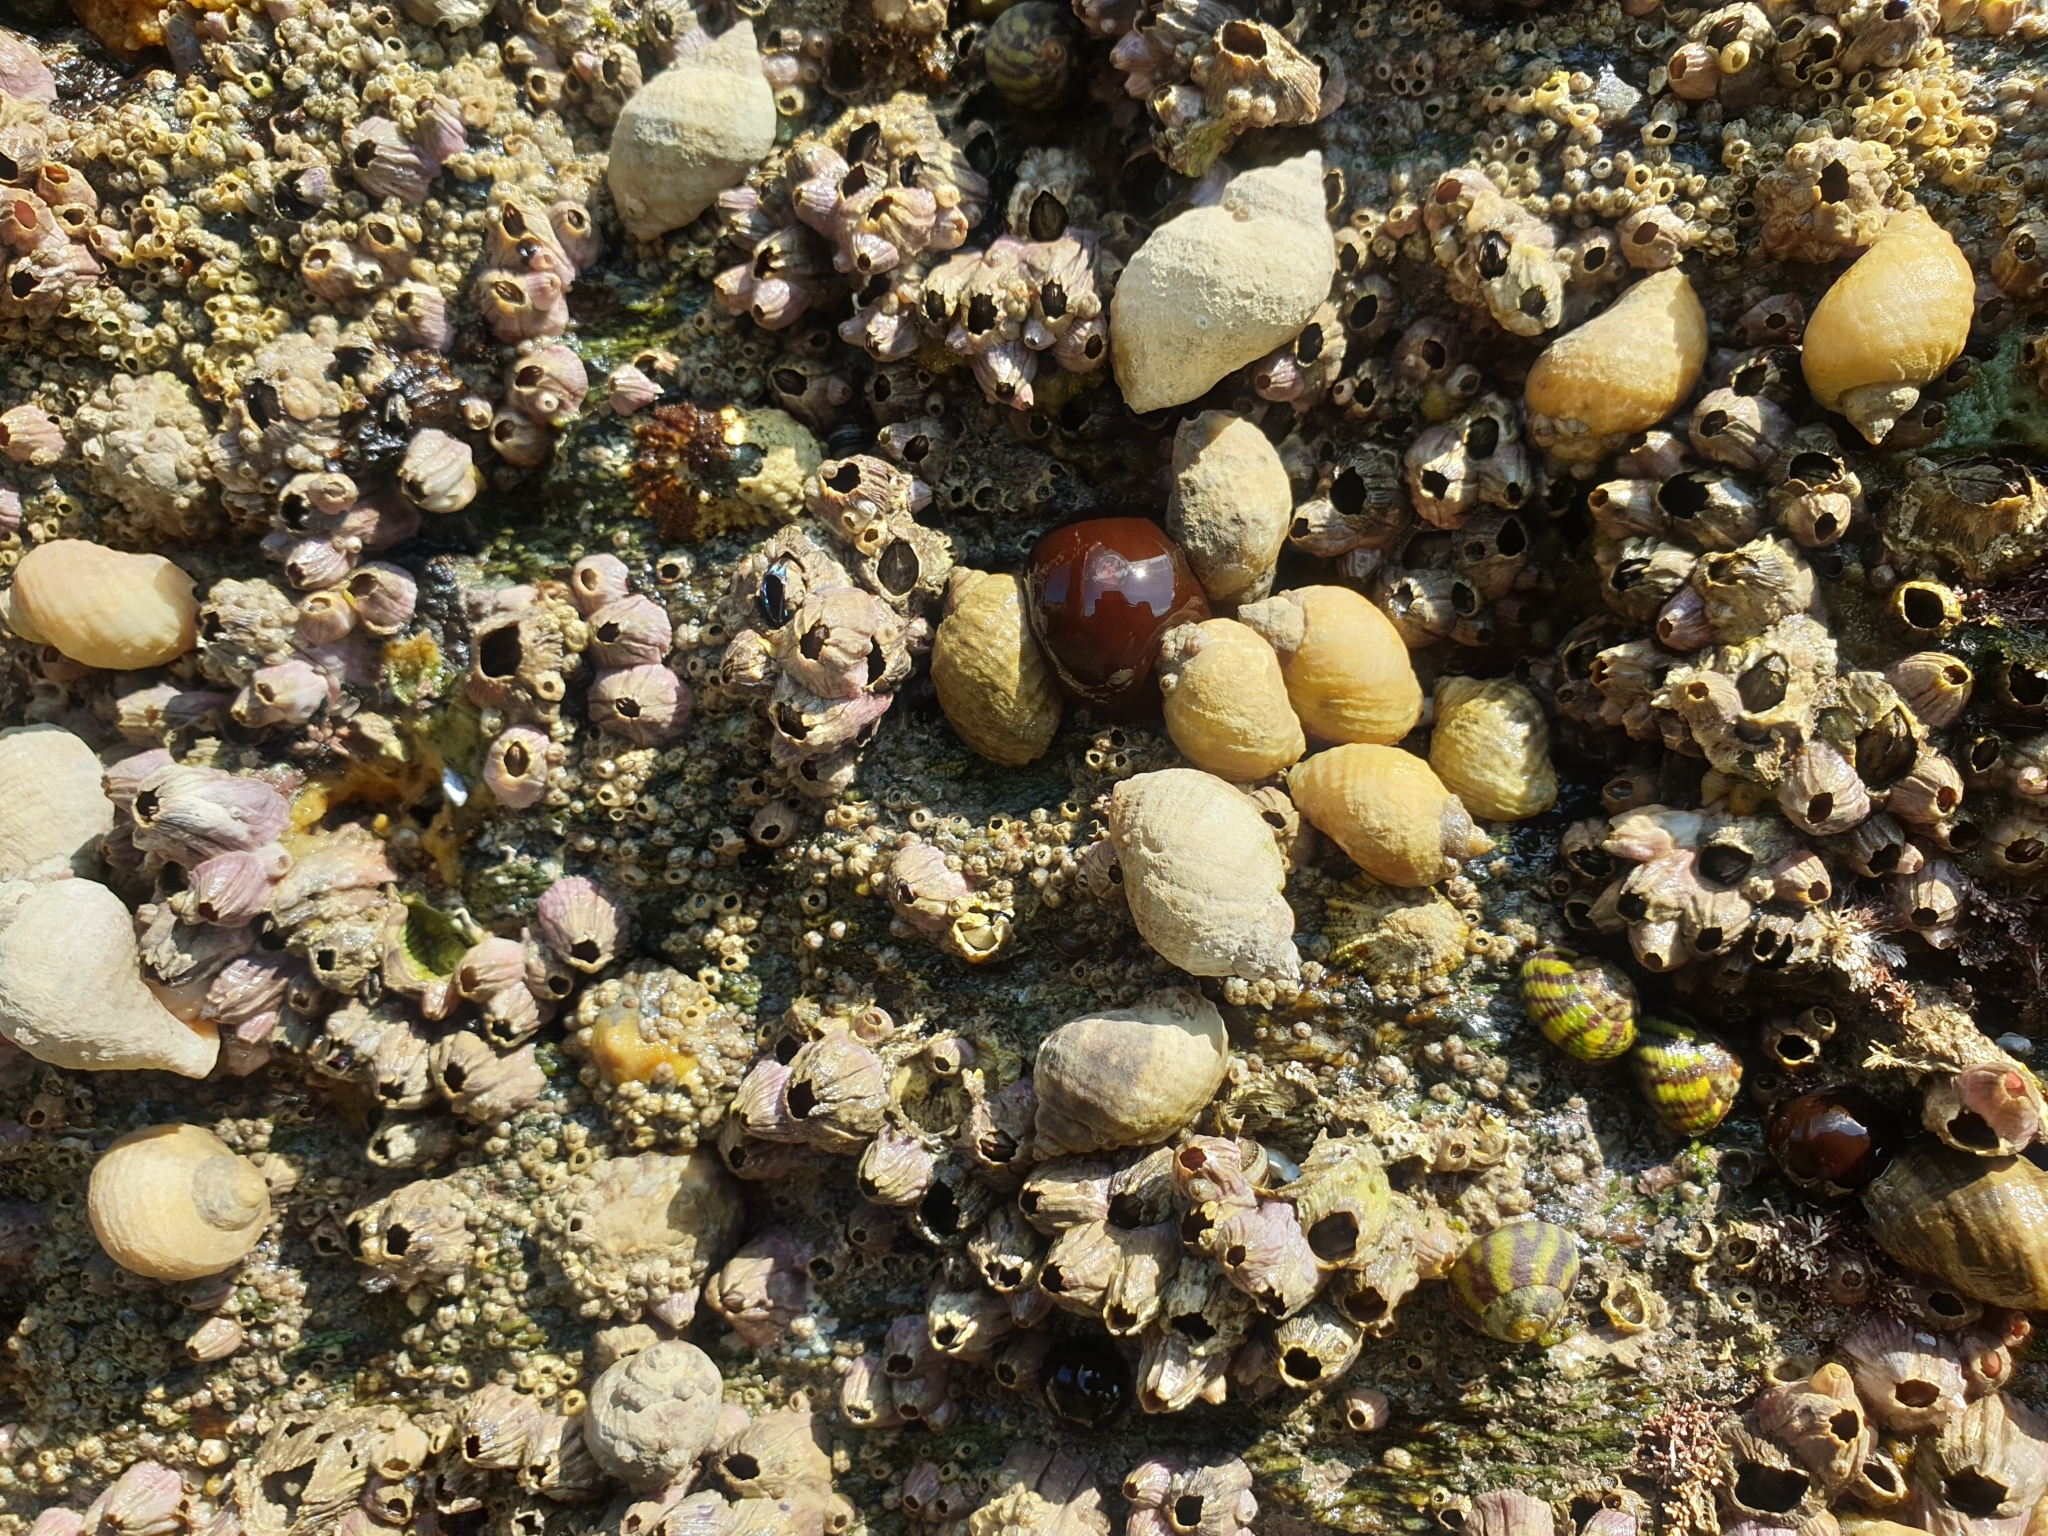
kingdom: Animalia
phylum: Mollusca
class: Gastropoda
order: Neogastropoda
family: Muricidae
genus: Nucella
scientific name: Nucella lapillus
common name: Dog whelk
